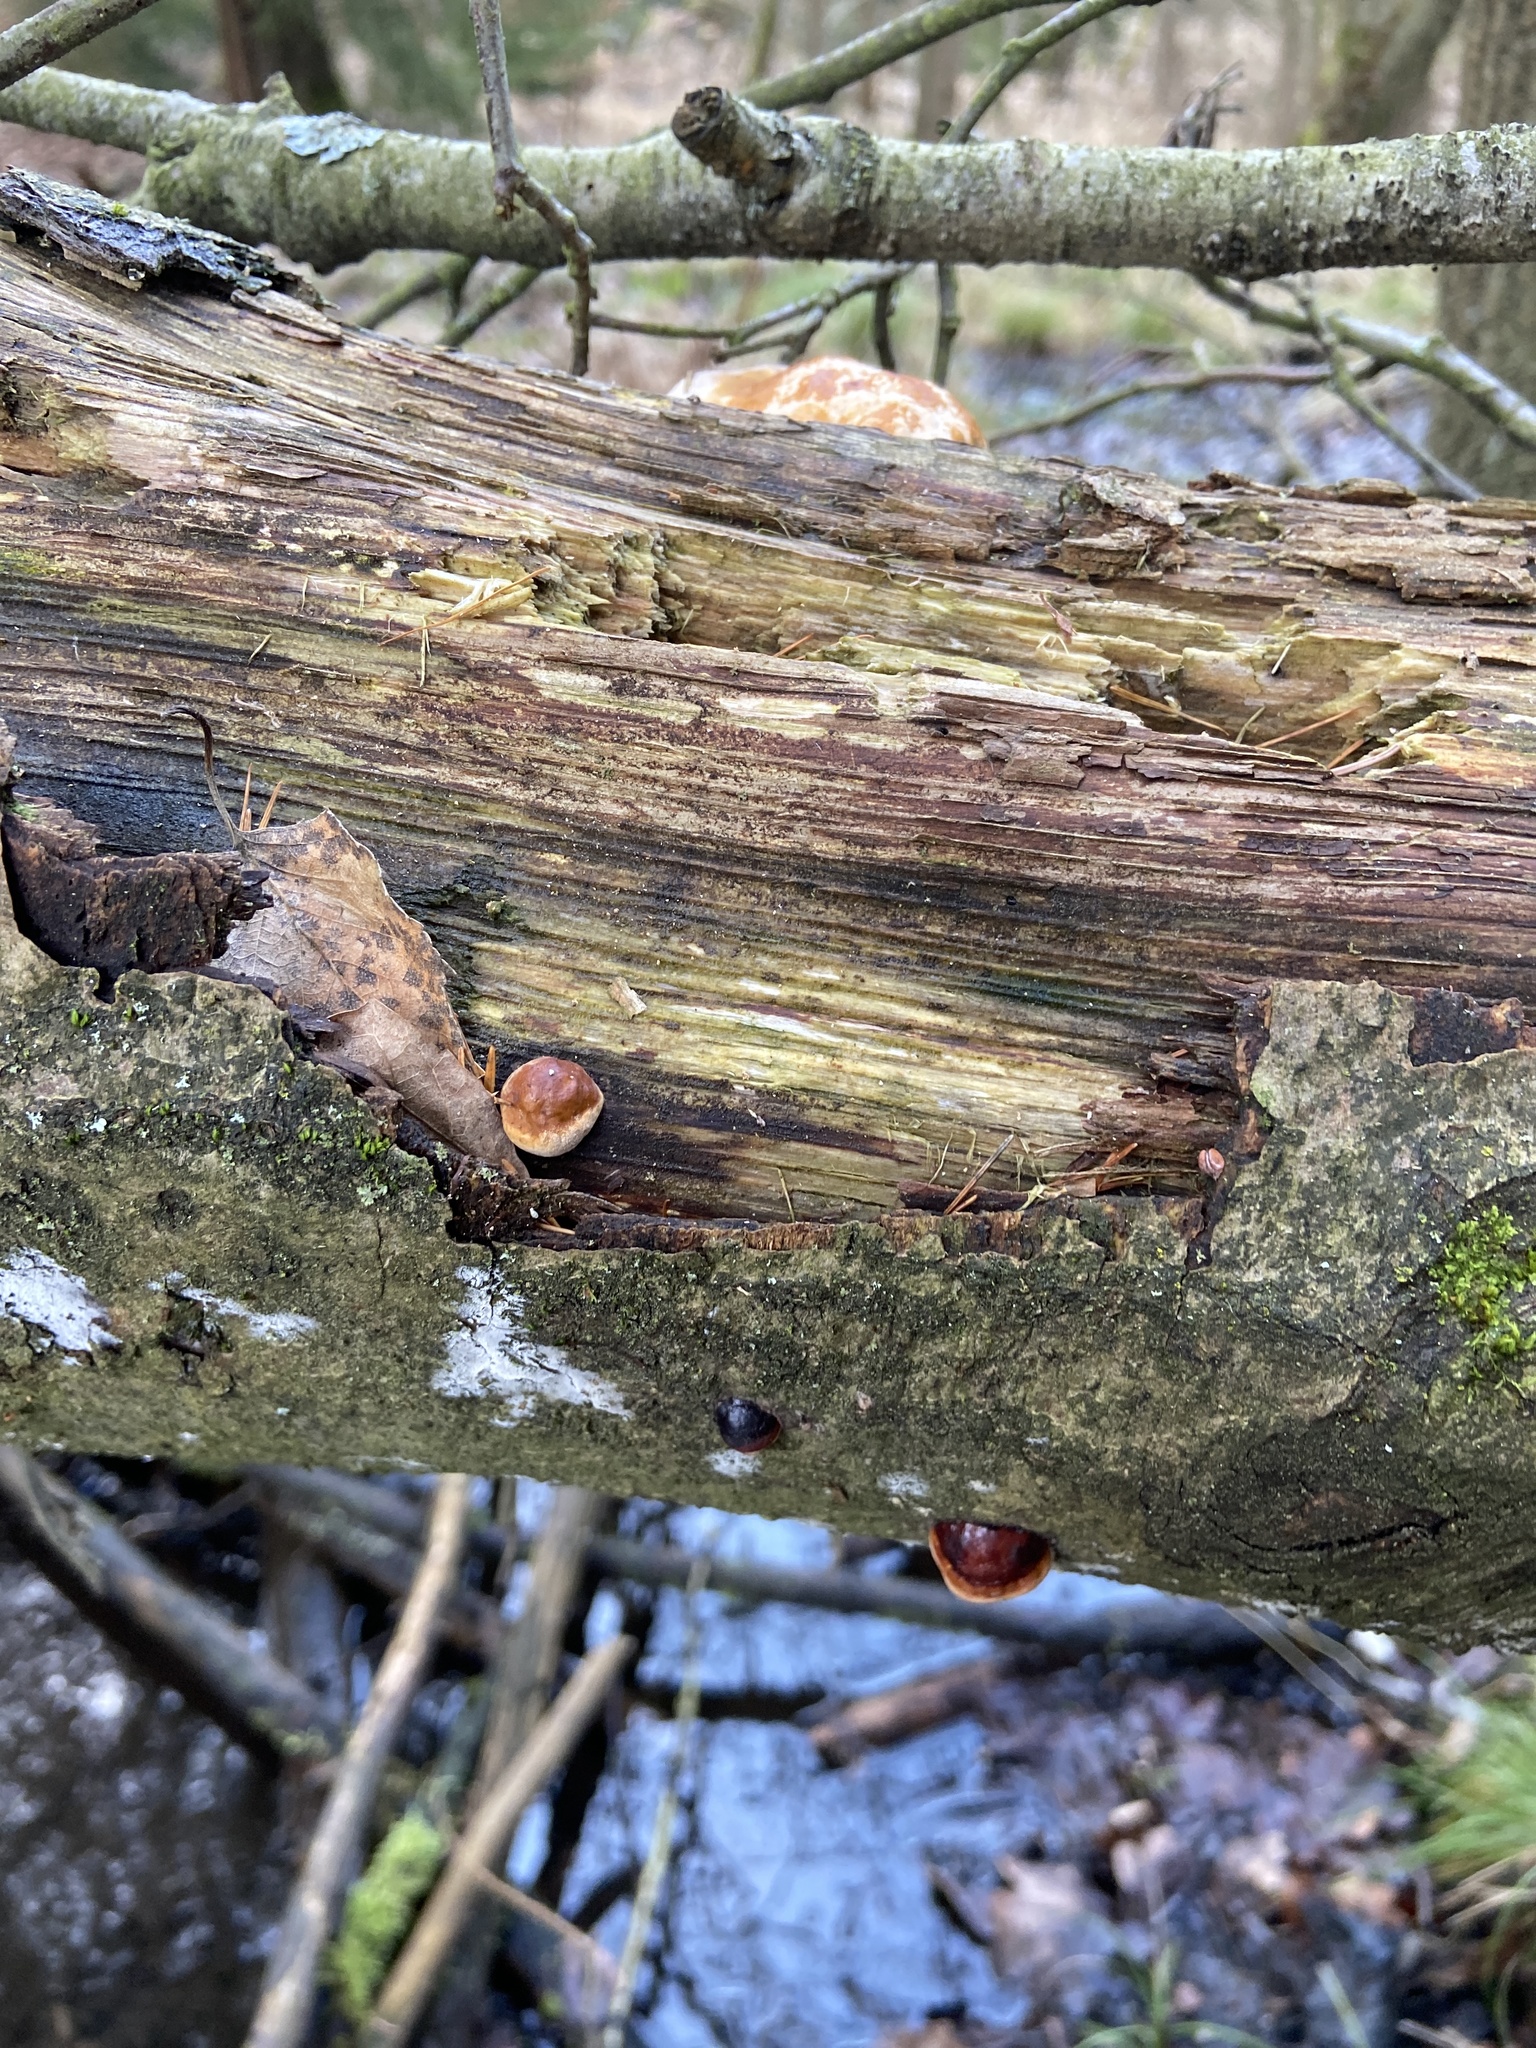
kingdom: Fungi
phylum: Basidiomycota
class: Agaricomycetes
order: Polyporales
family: Fomitopsidaceae
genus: Fomitopsis
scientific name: Fomitopsis pinicola
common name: Red-belted bracket
